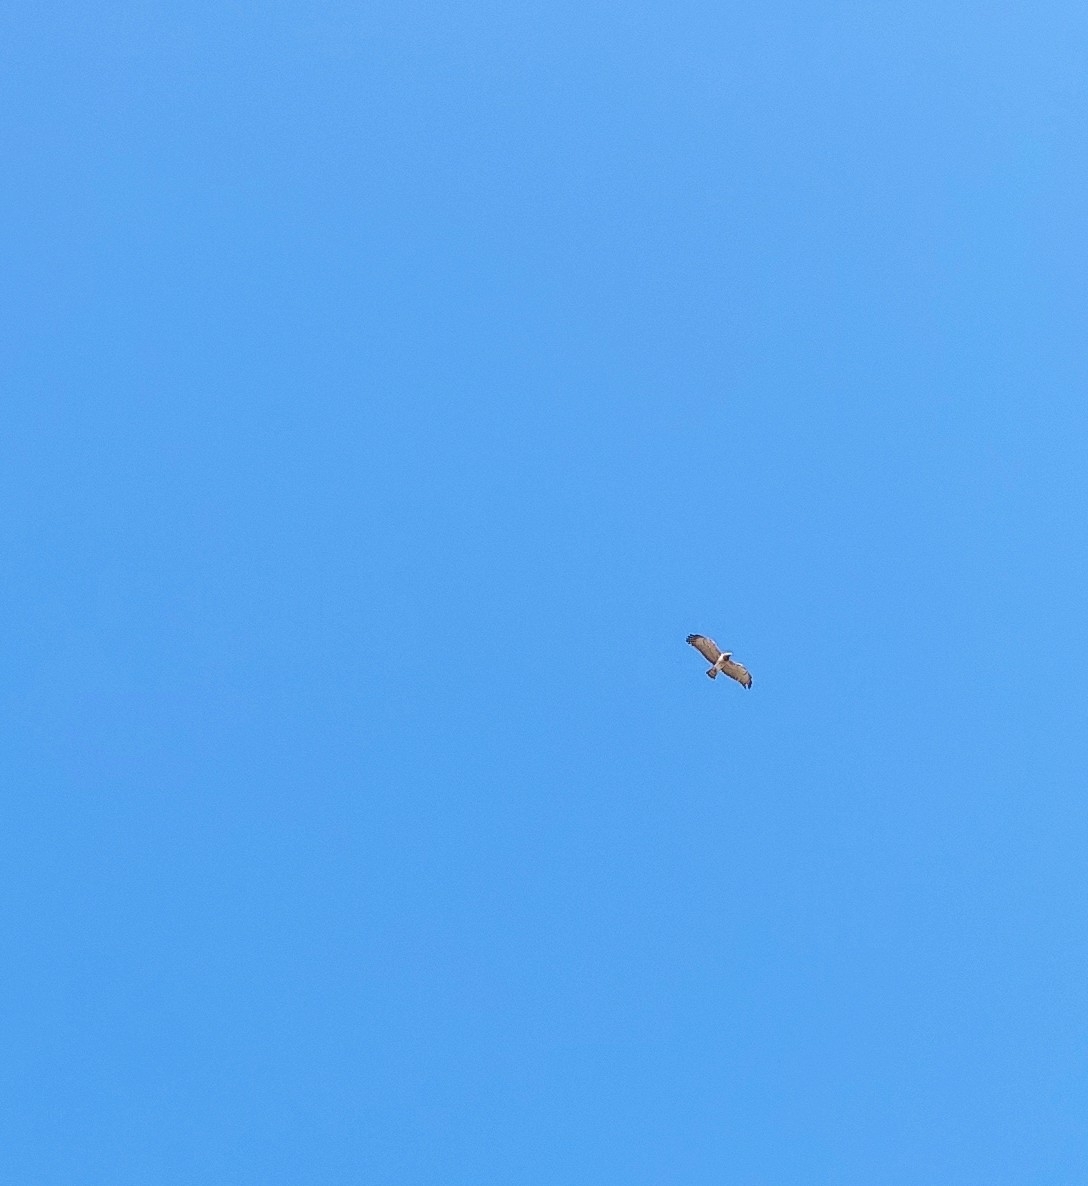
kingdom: Animalia
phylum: Chordata
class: Aves
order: Accipitriformes
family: Accipitridae
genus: Circaetus
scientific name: Circaetus gallicus
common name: Short-toed snake eagle
